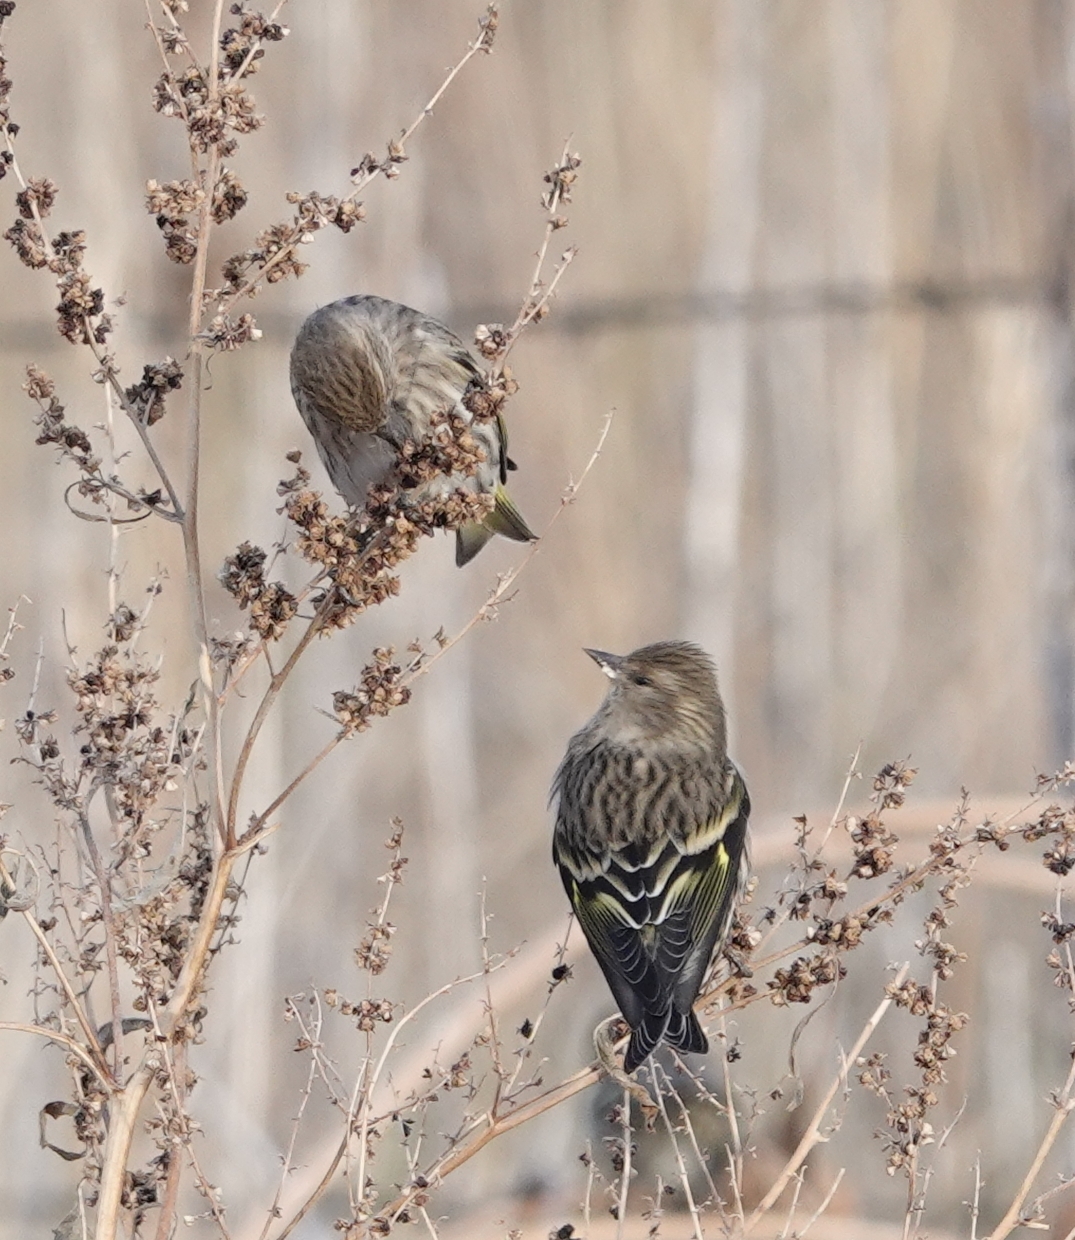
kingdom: Animalia
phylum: Chordata
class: Aves
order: Passeriformes
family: Fringillidae
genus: Spinus
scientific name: Spinus pinus
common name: Pine siskin
